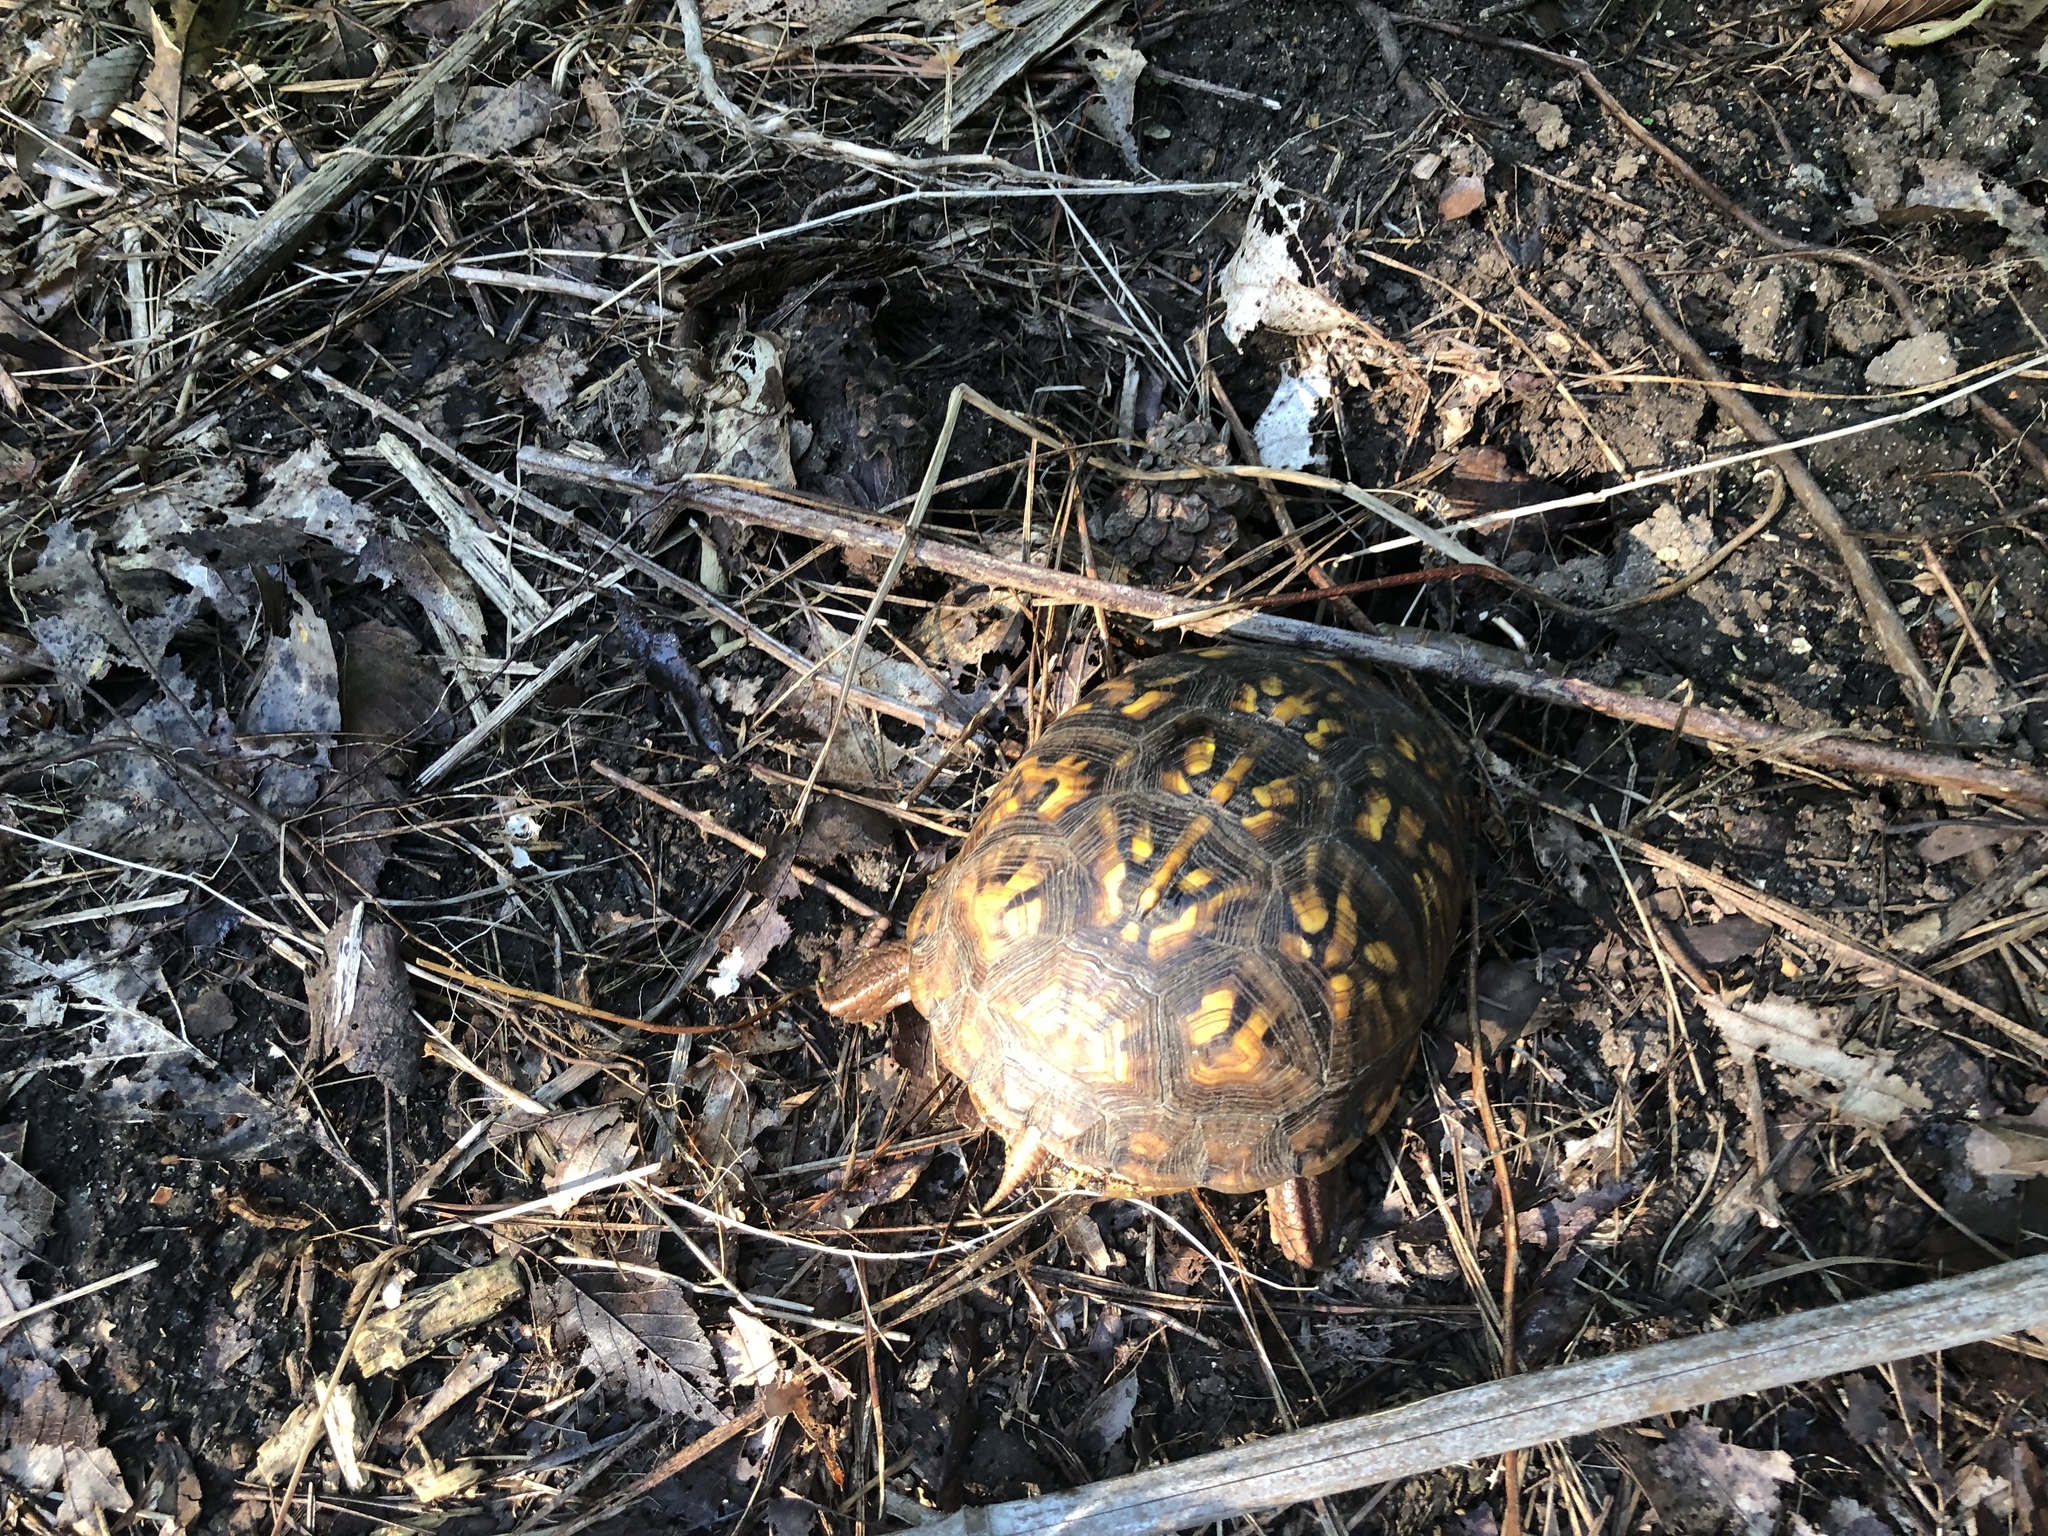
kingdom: Animalia
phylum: Chordata
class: Testudines
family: Emydidae
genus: Terrapene
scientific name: Terrapene carolina
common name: Common box turtle
